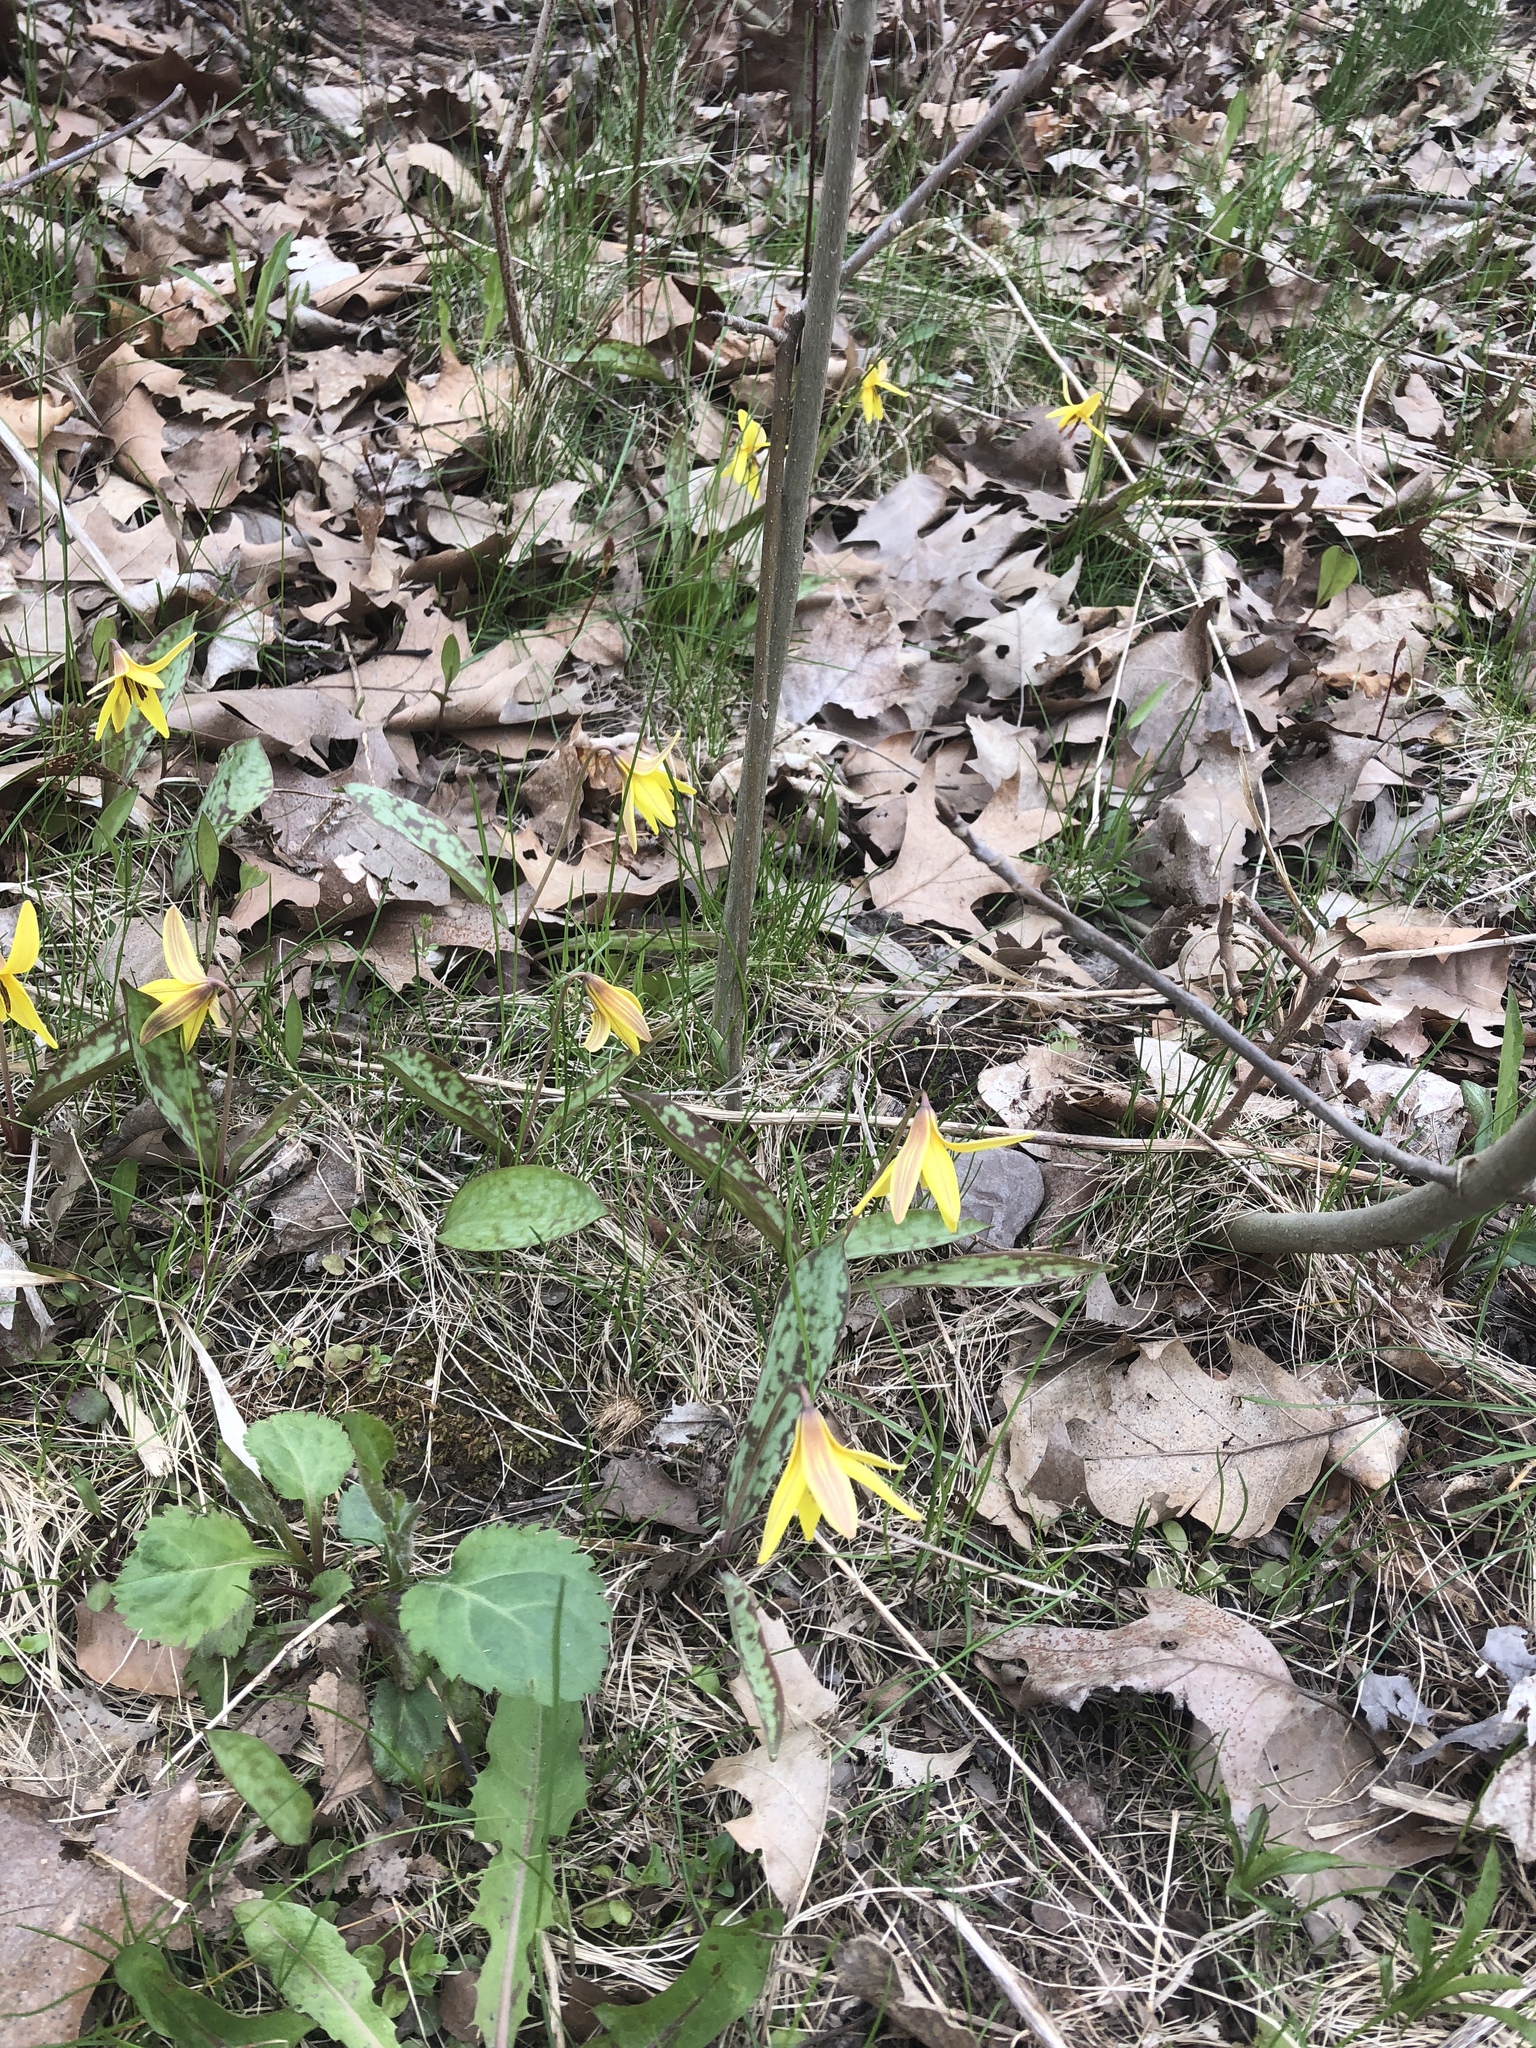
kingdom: Plantae
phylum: Tracheophyta
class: Liliopsida
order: Liliales
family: Liliaceae
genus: Erythronium
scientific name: Erythronium americanum
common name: Yellow adder's-tongue
